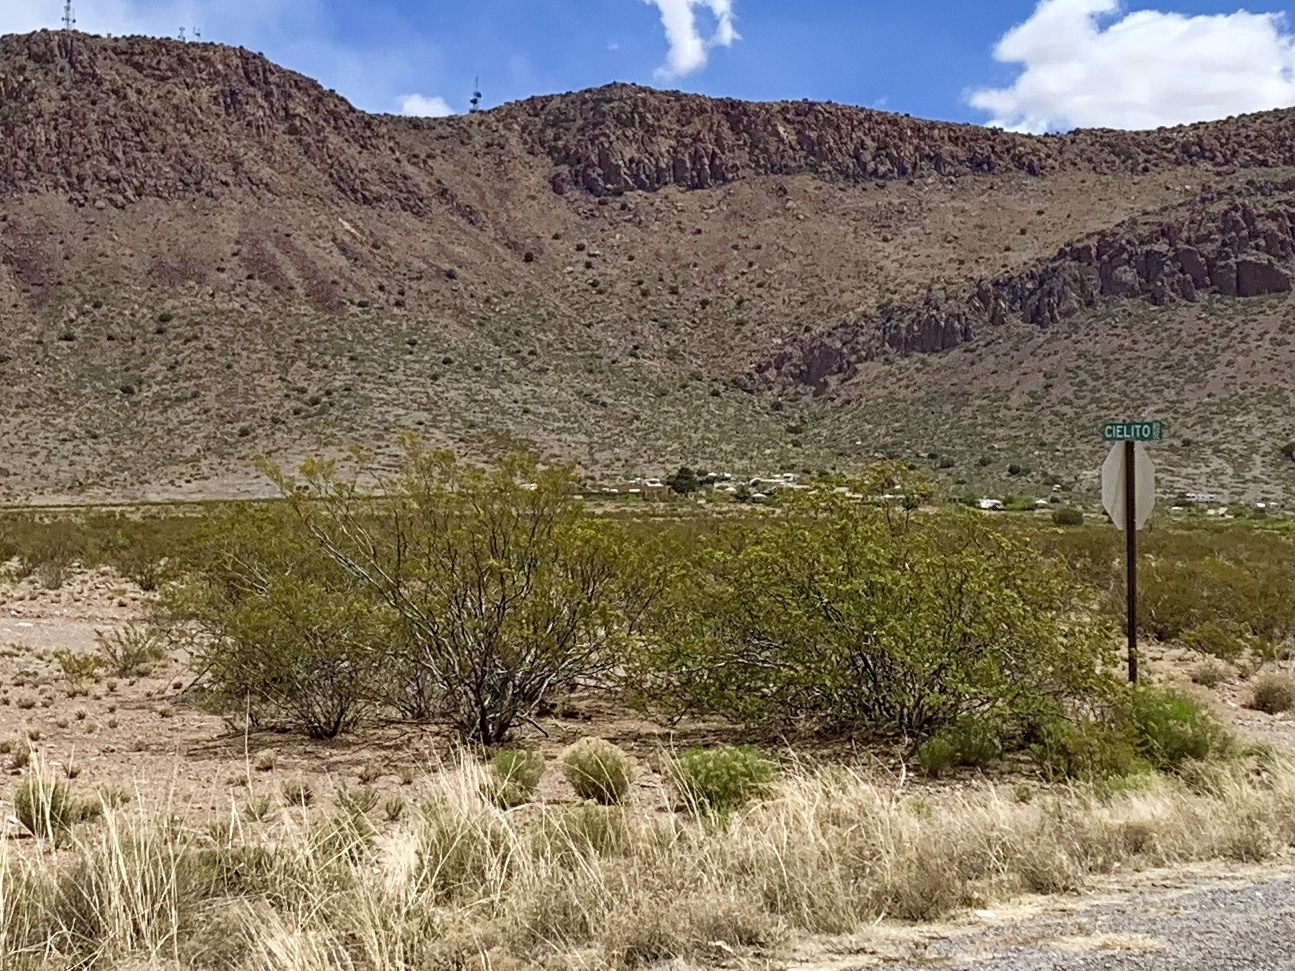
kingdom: Plantae
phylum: Tracheophyta
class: Magnoliopsida
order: Zygophyllales
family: Zygophyllaceae
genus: Larrea
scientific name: Larrea tridentata
